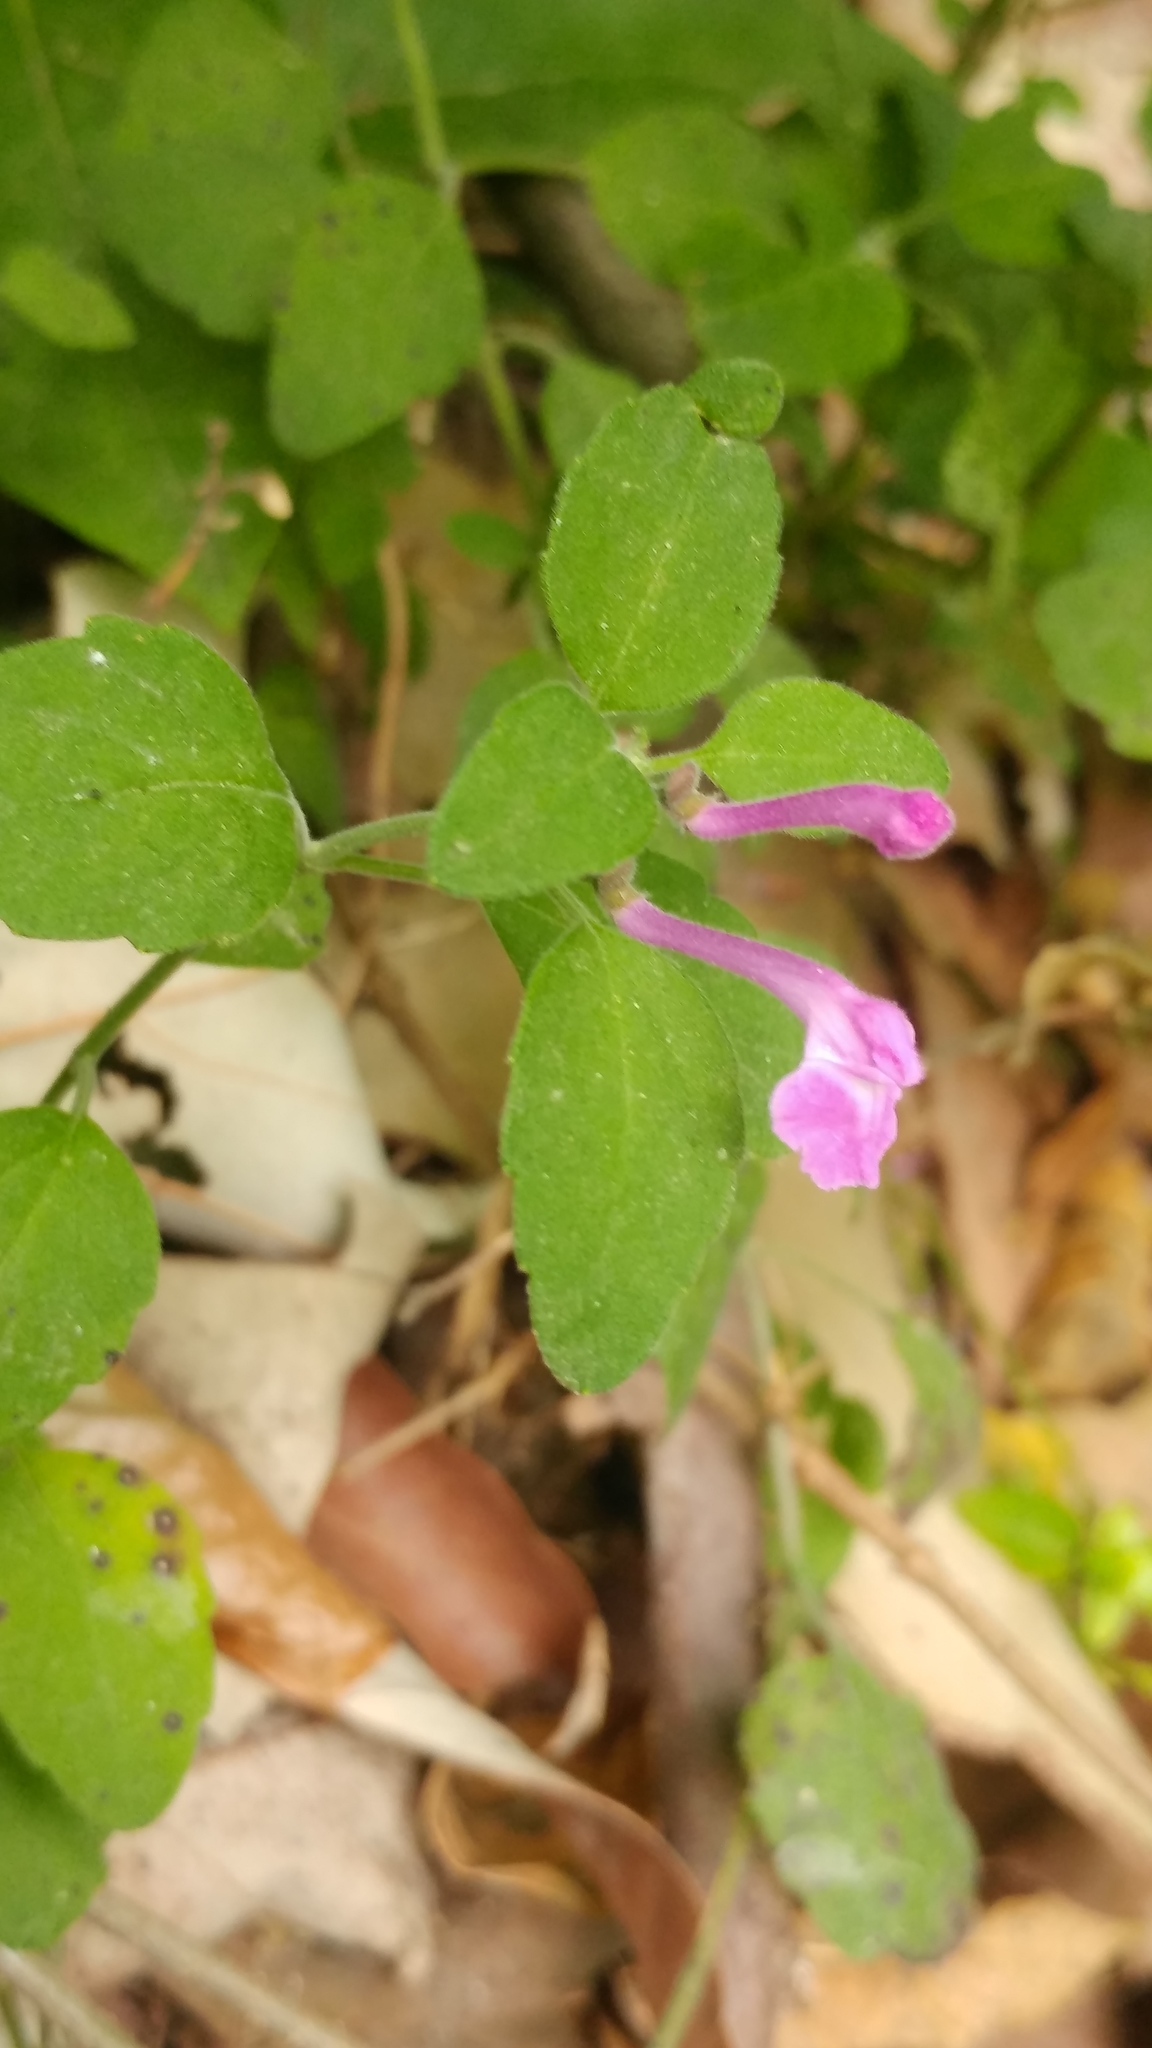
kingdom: Plantae
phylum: Tracheophyta
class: Magnoliopsida
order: Lamiales
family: Lamiaceae
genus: Scutellaria
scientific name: Scutellaria seleriana
